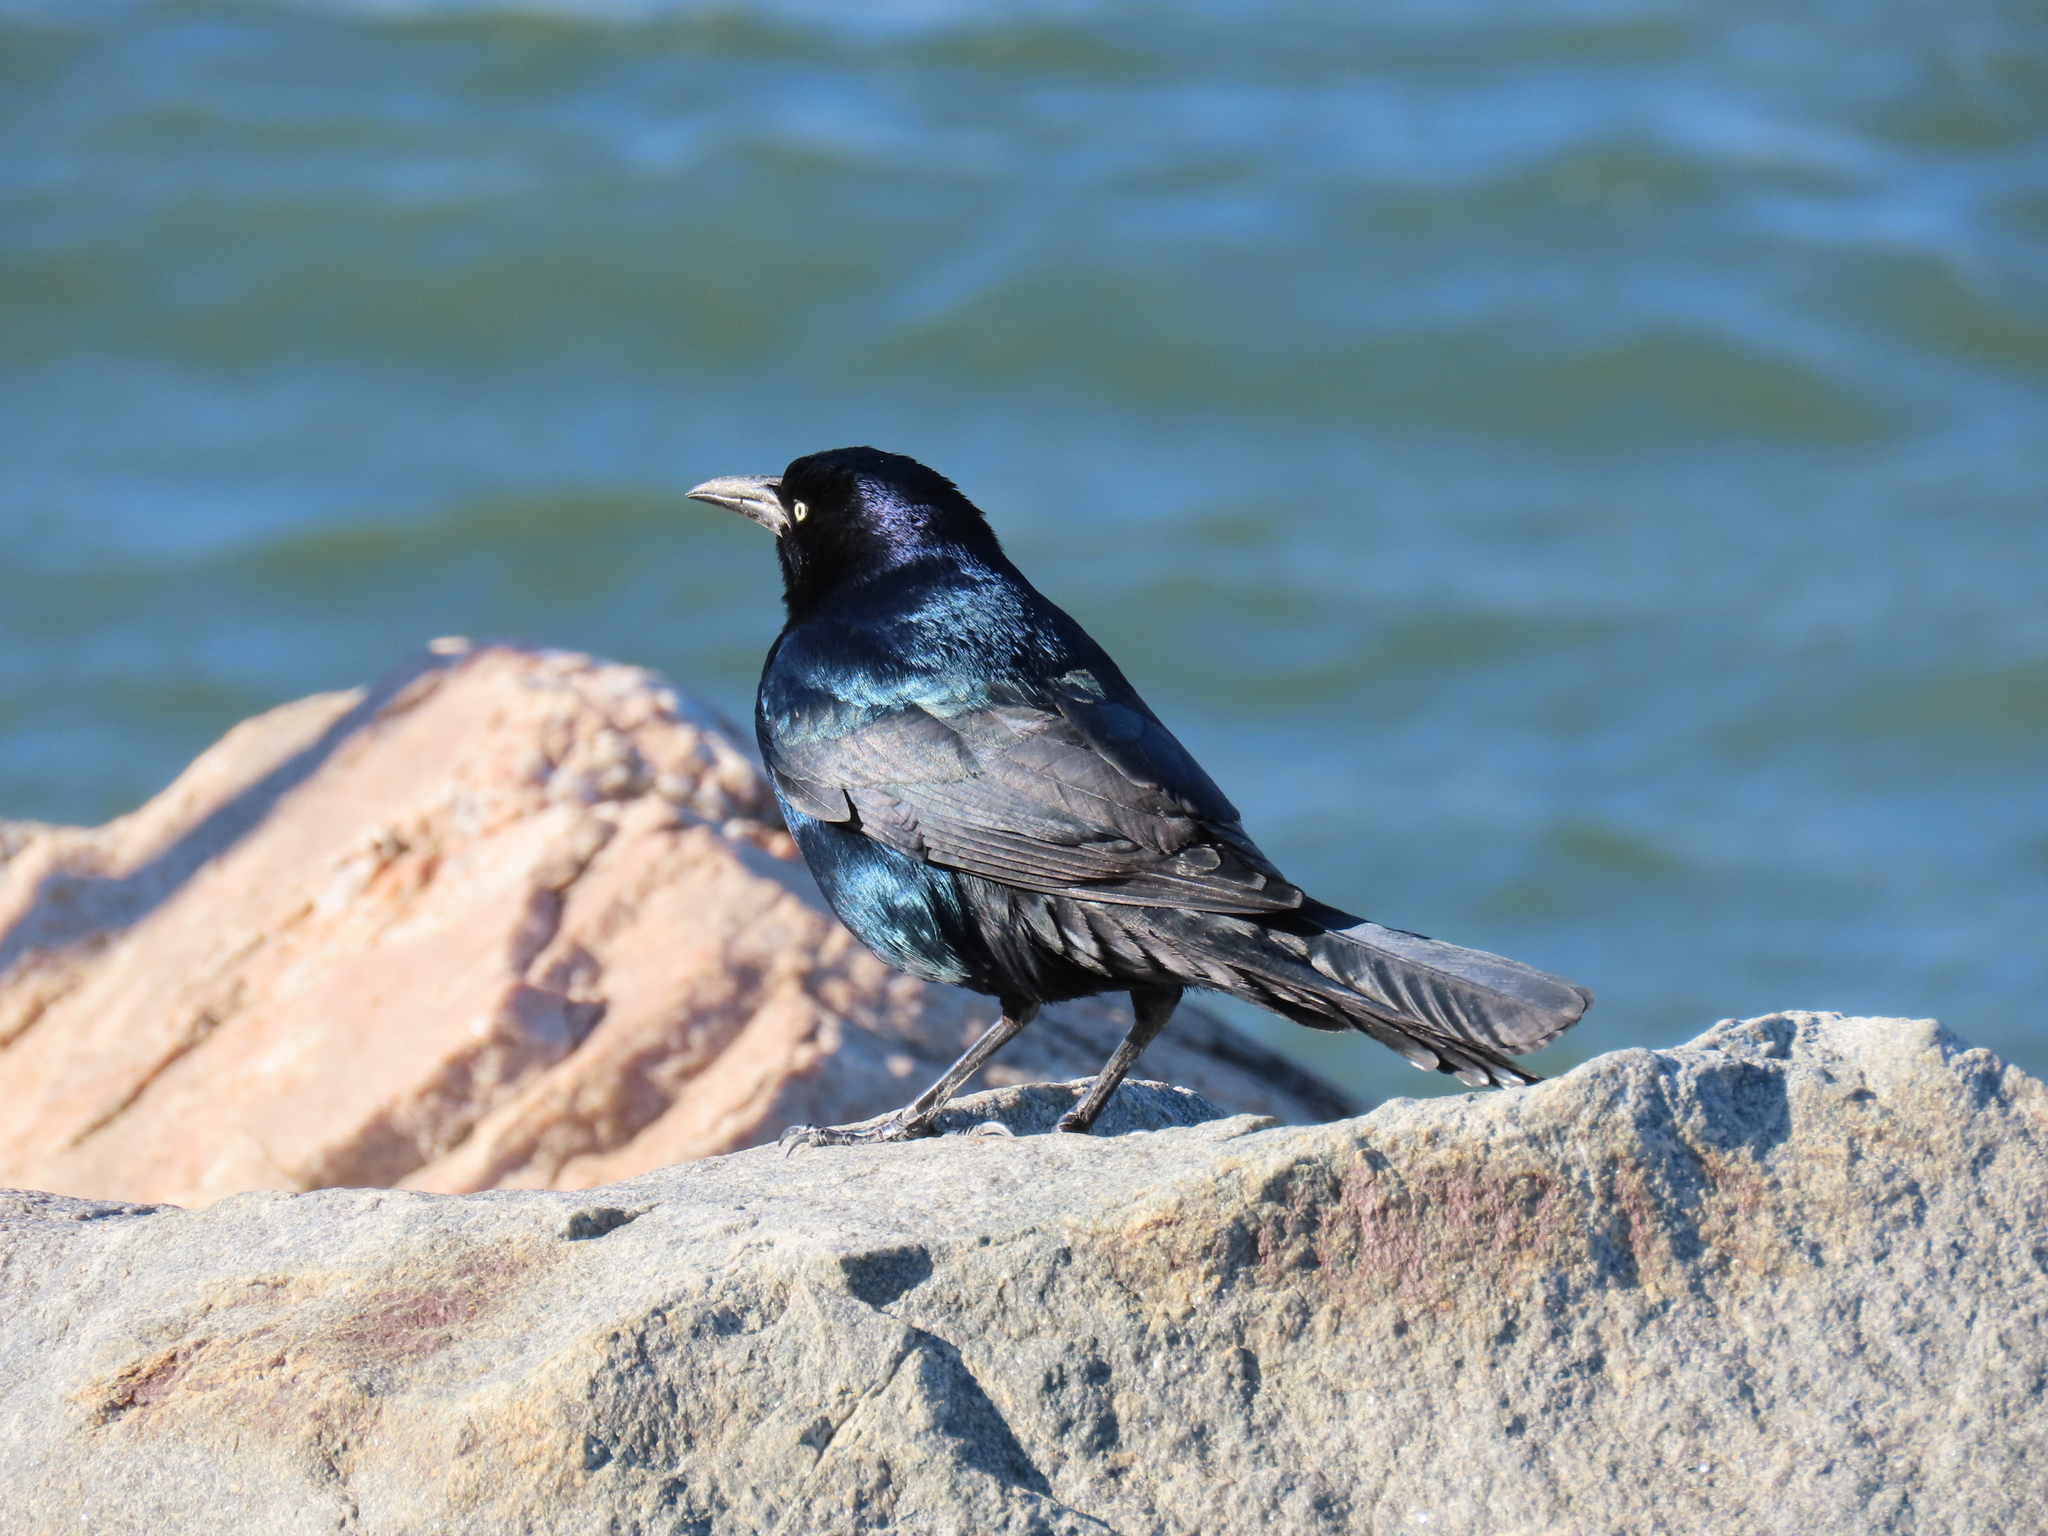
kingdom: Animalia
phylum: Chordata
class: Aves
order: Passeriformes
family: Icteridae
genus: Quiscalus
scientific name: Quiscalus major
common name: Boat-tailed grackle
